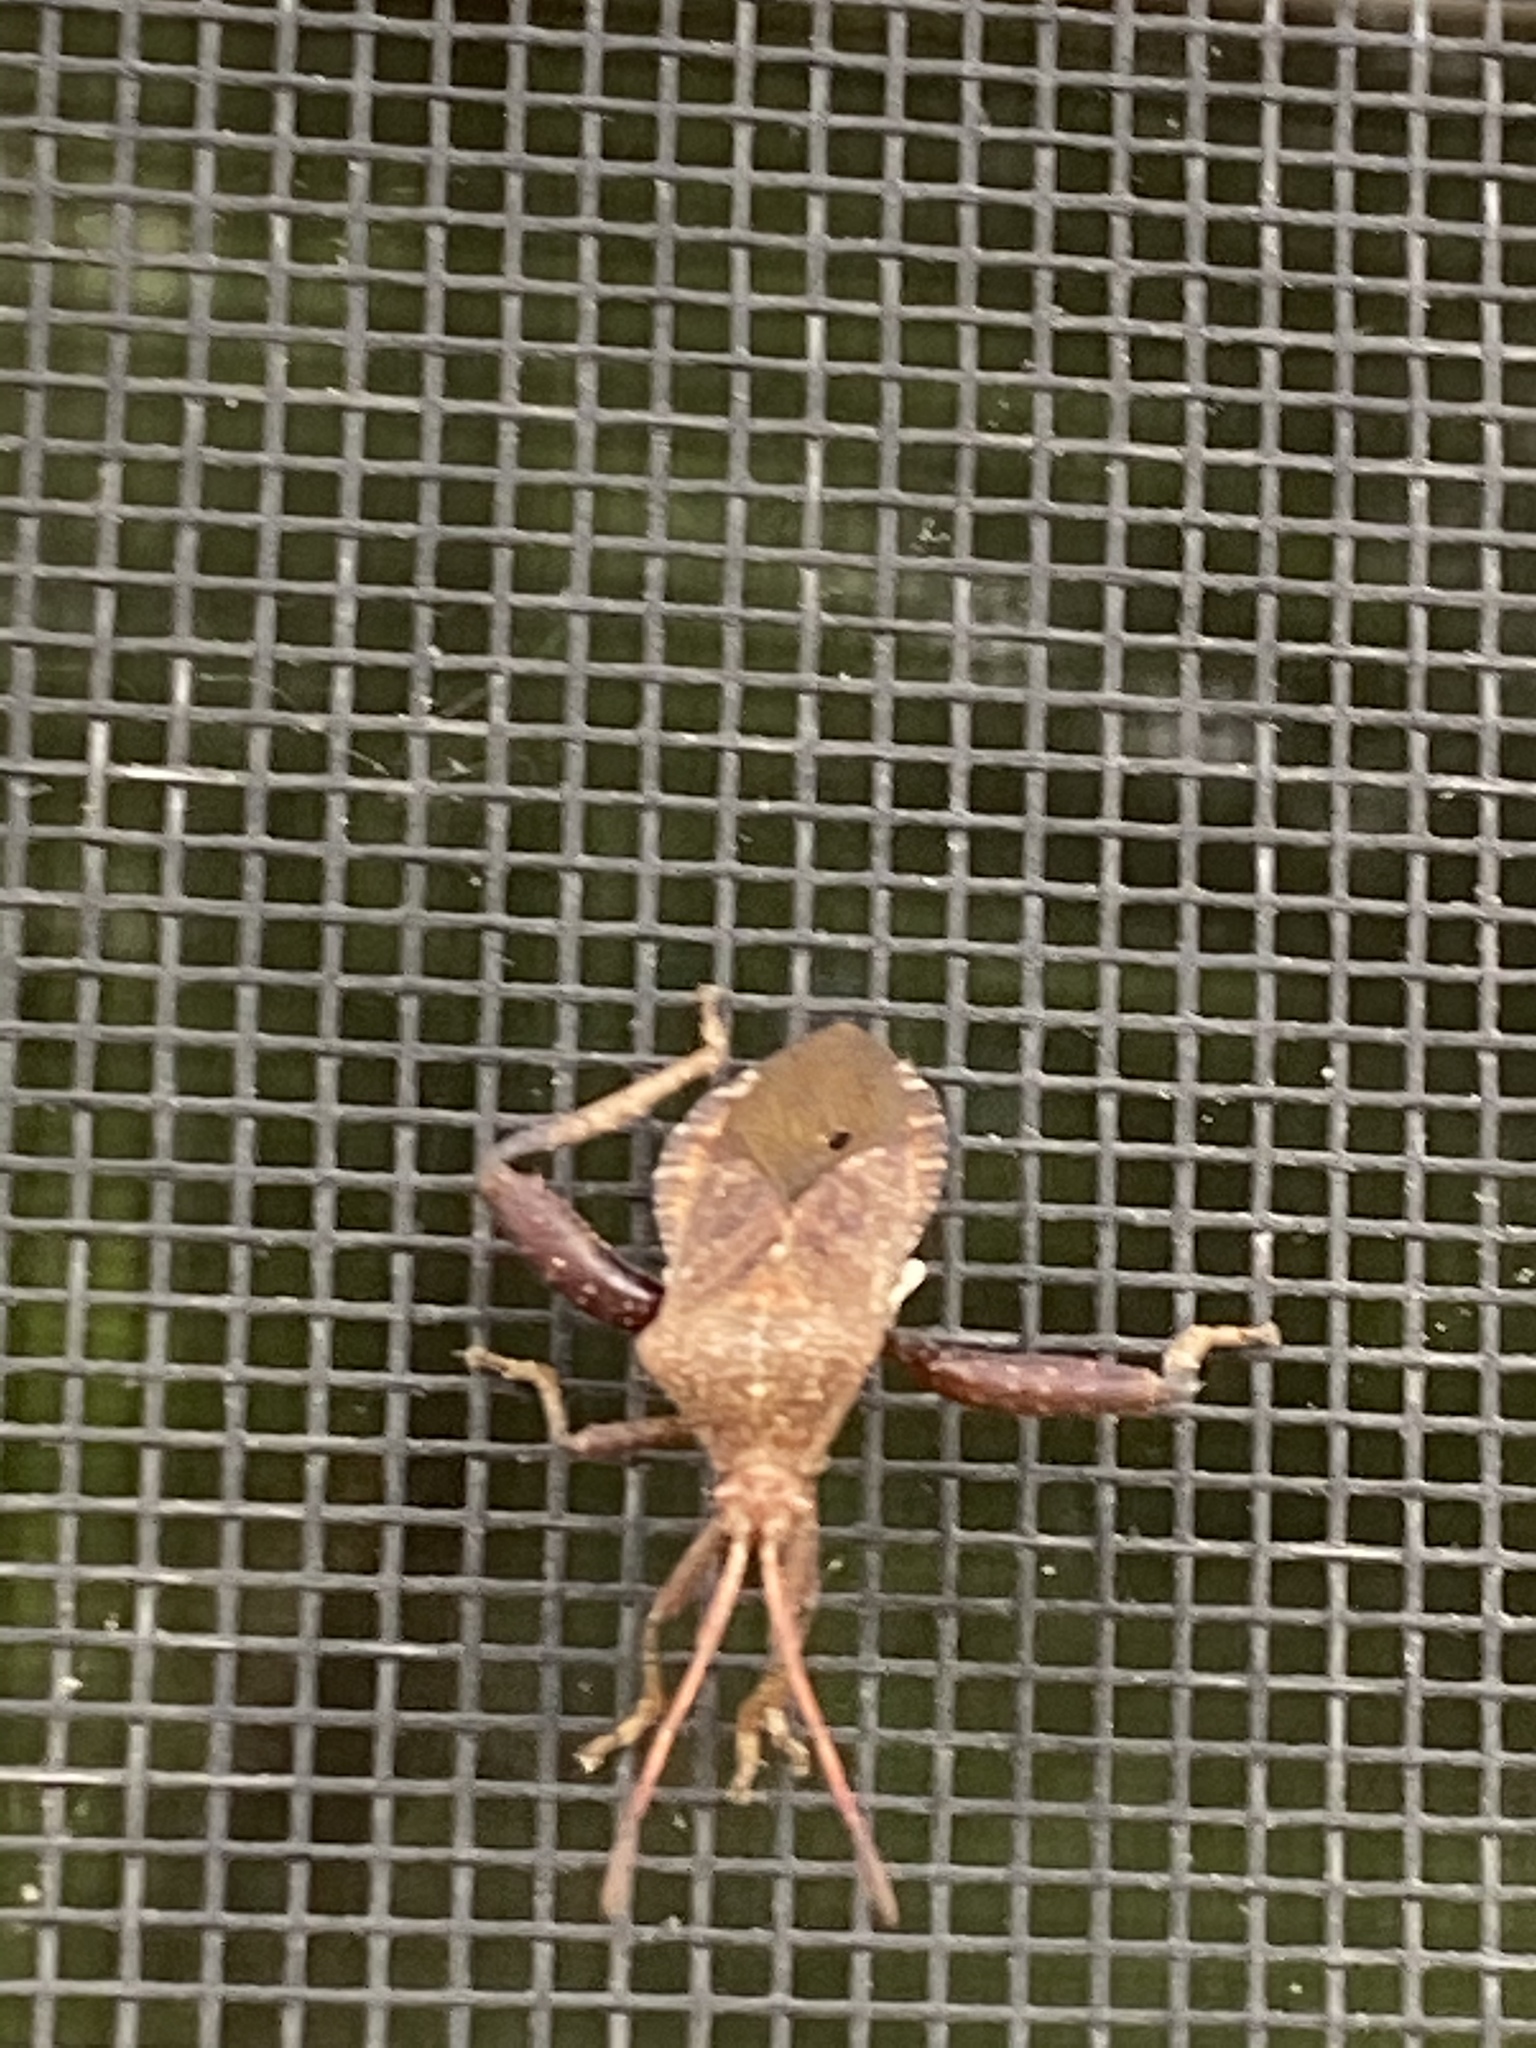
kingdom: Animalia
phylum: Arthropoda
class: Insecta
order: Hemiptera
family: Coreidae
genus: Euthochtha
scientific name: Euthochtha galeator
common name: Helmeted squash bug
